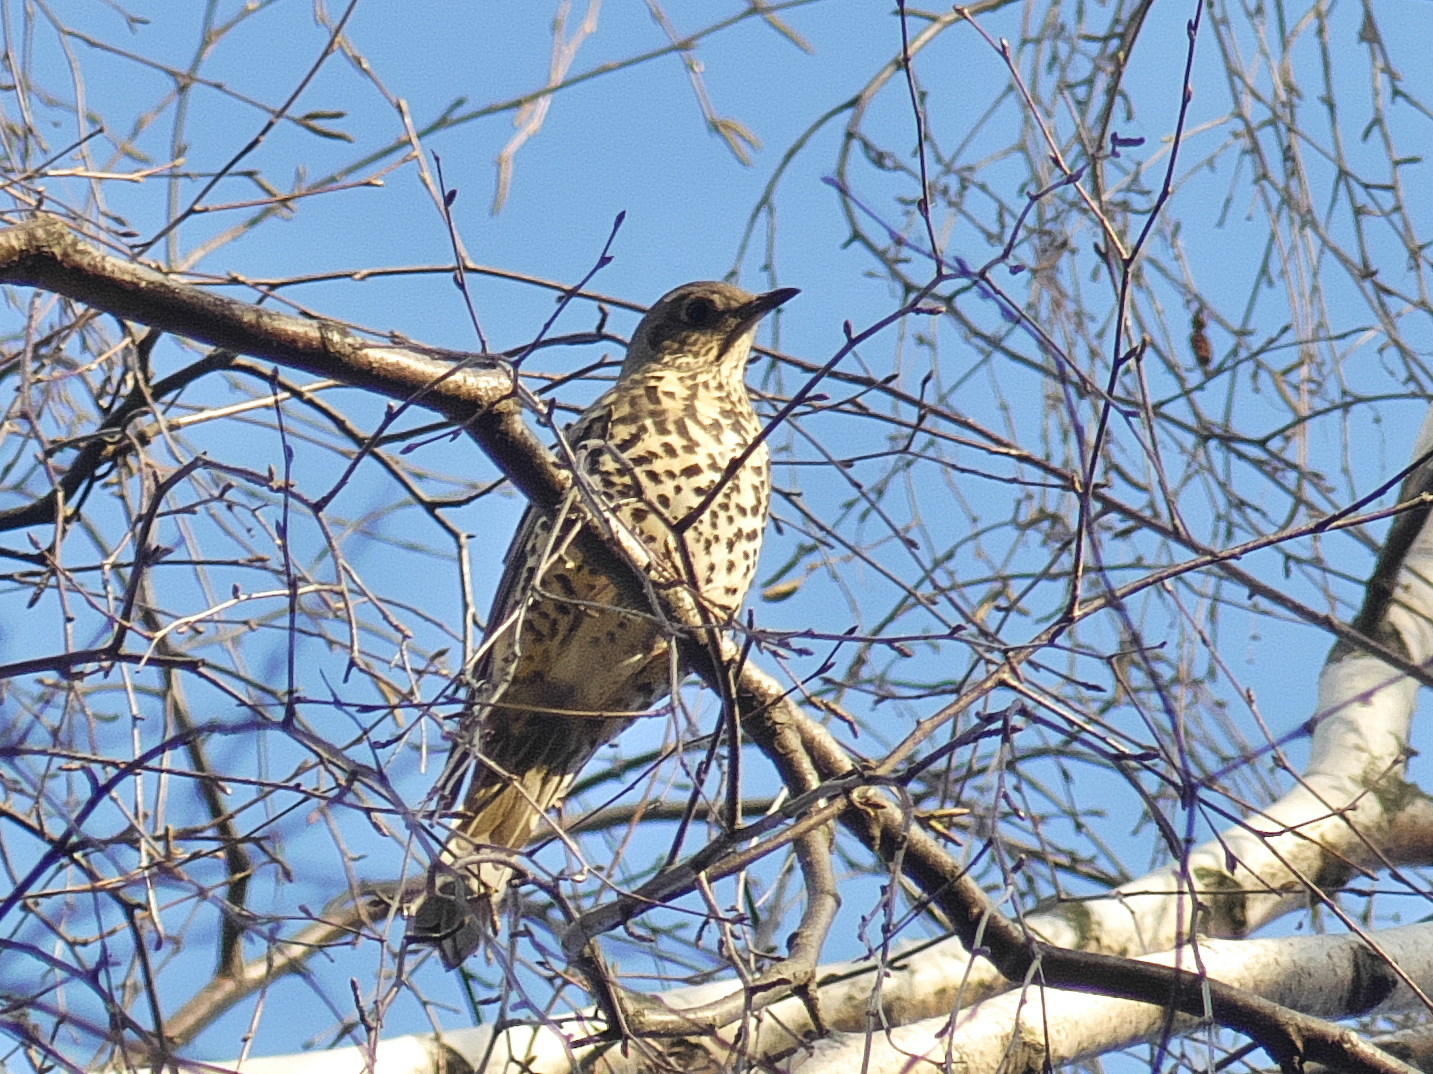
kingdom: Animalia
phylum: Chordata
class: Aves
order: Passeriformes
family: Turdidae
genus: Turdus
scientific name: Turdus viscivorus
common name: Mistle thrush
